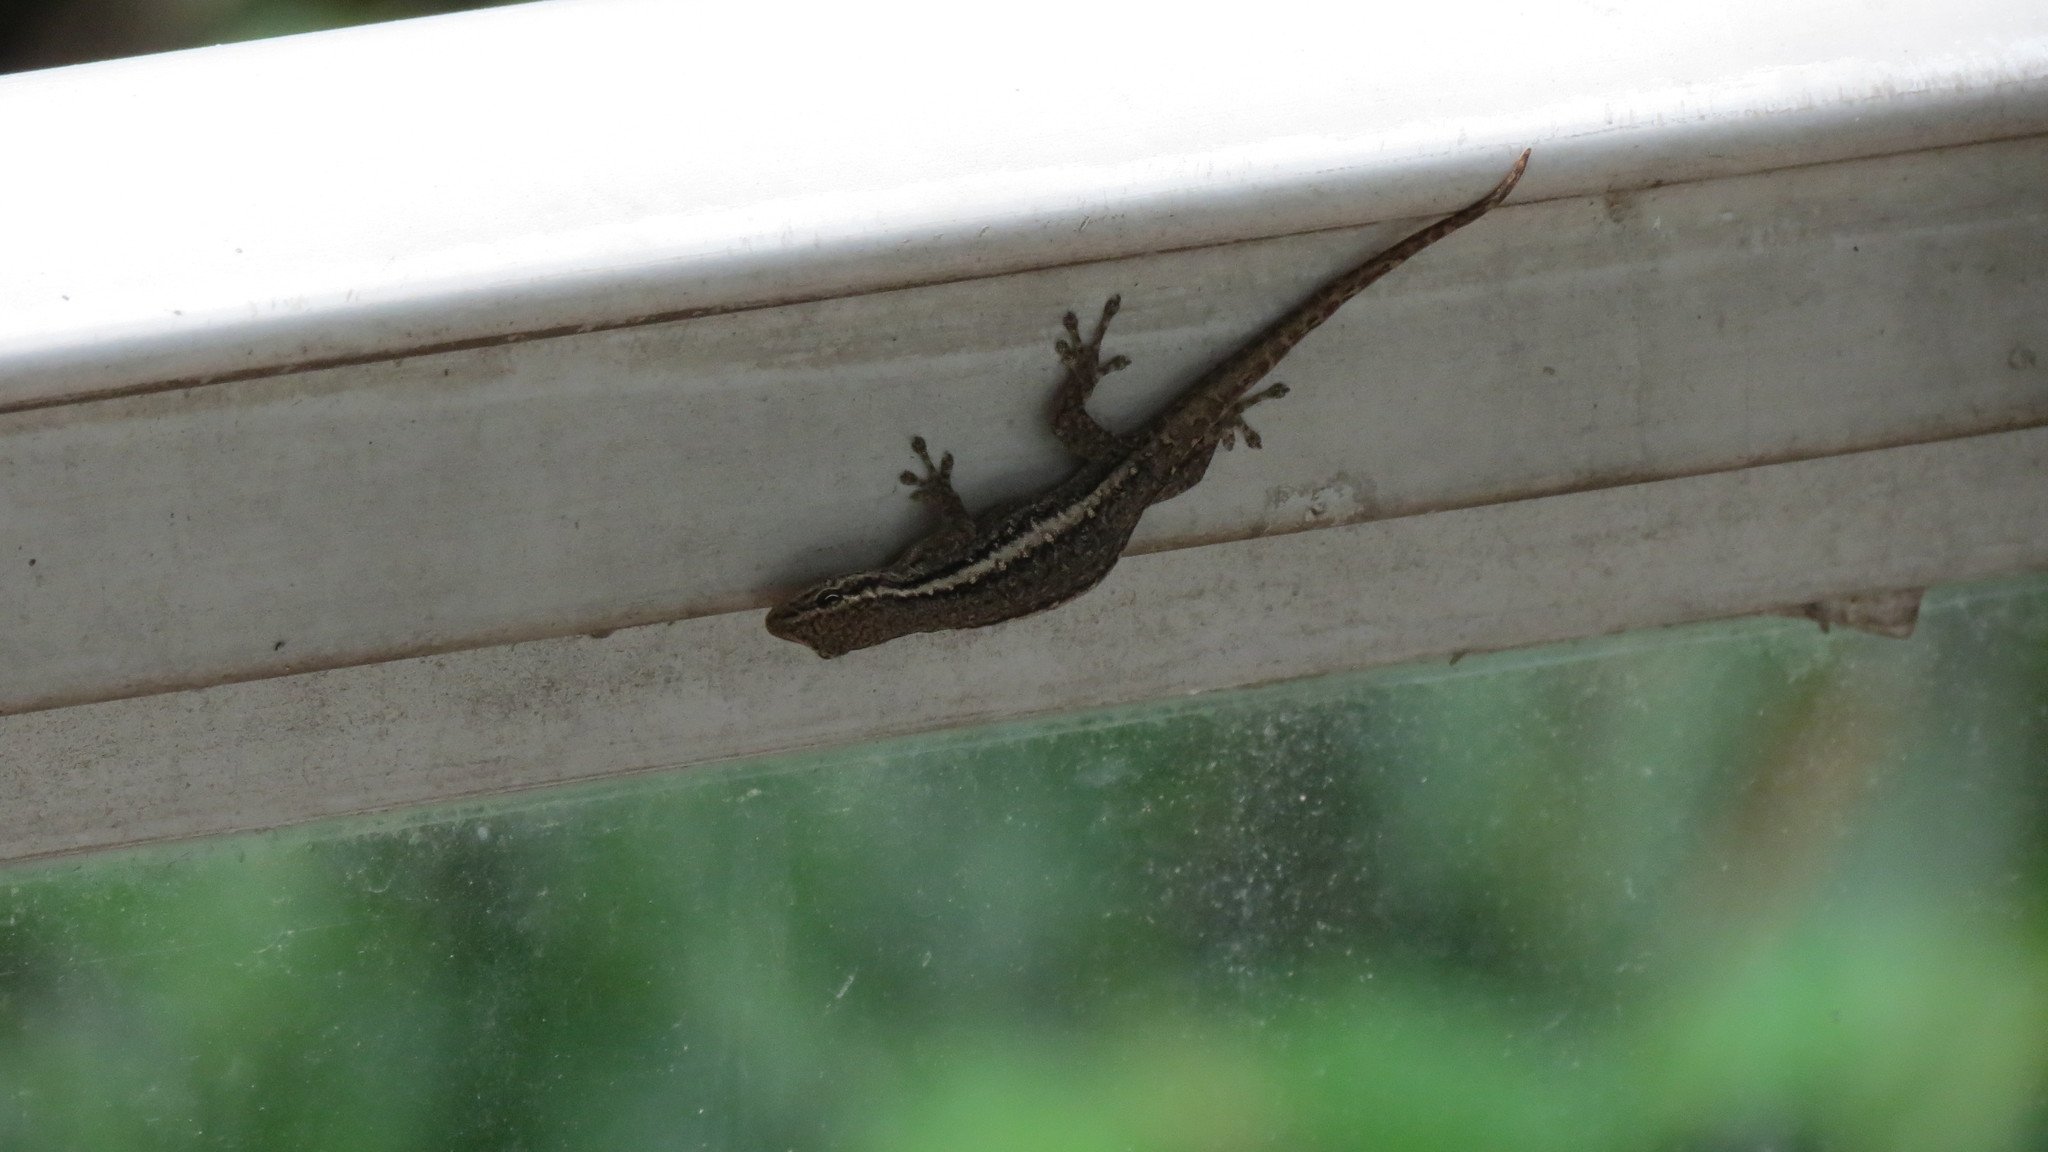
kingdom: Animalia
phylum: Chordata
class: Squamata
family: Gekkonidae
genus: Lygodactylus
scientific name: Lygodactylus capensis
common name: Cape dwarf gecko
